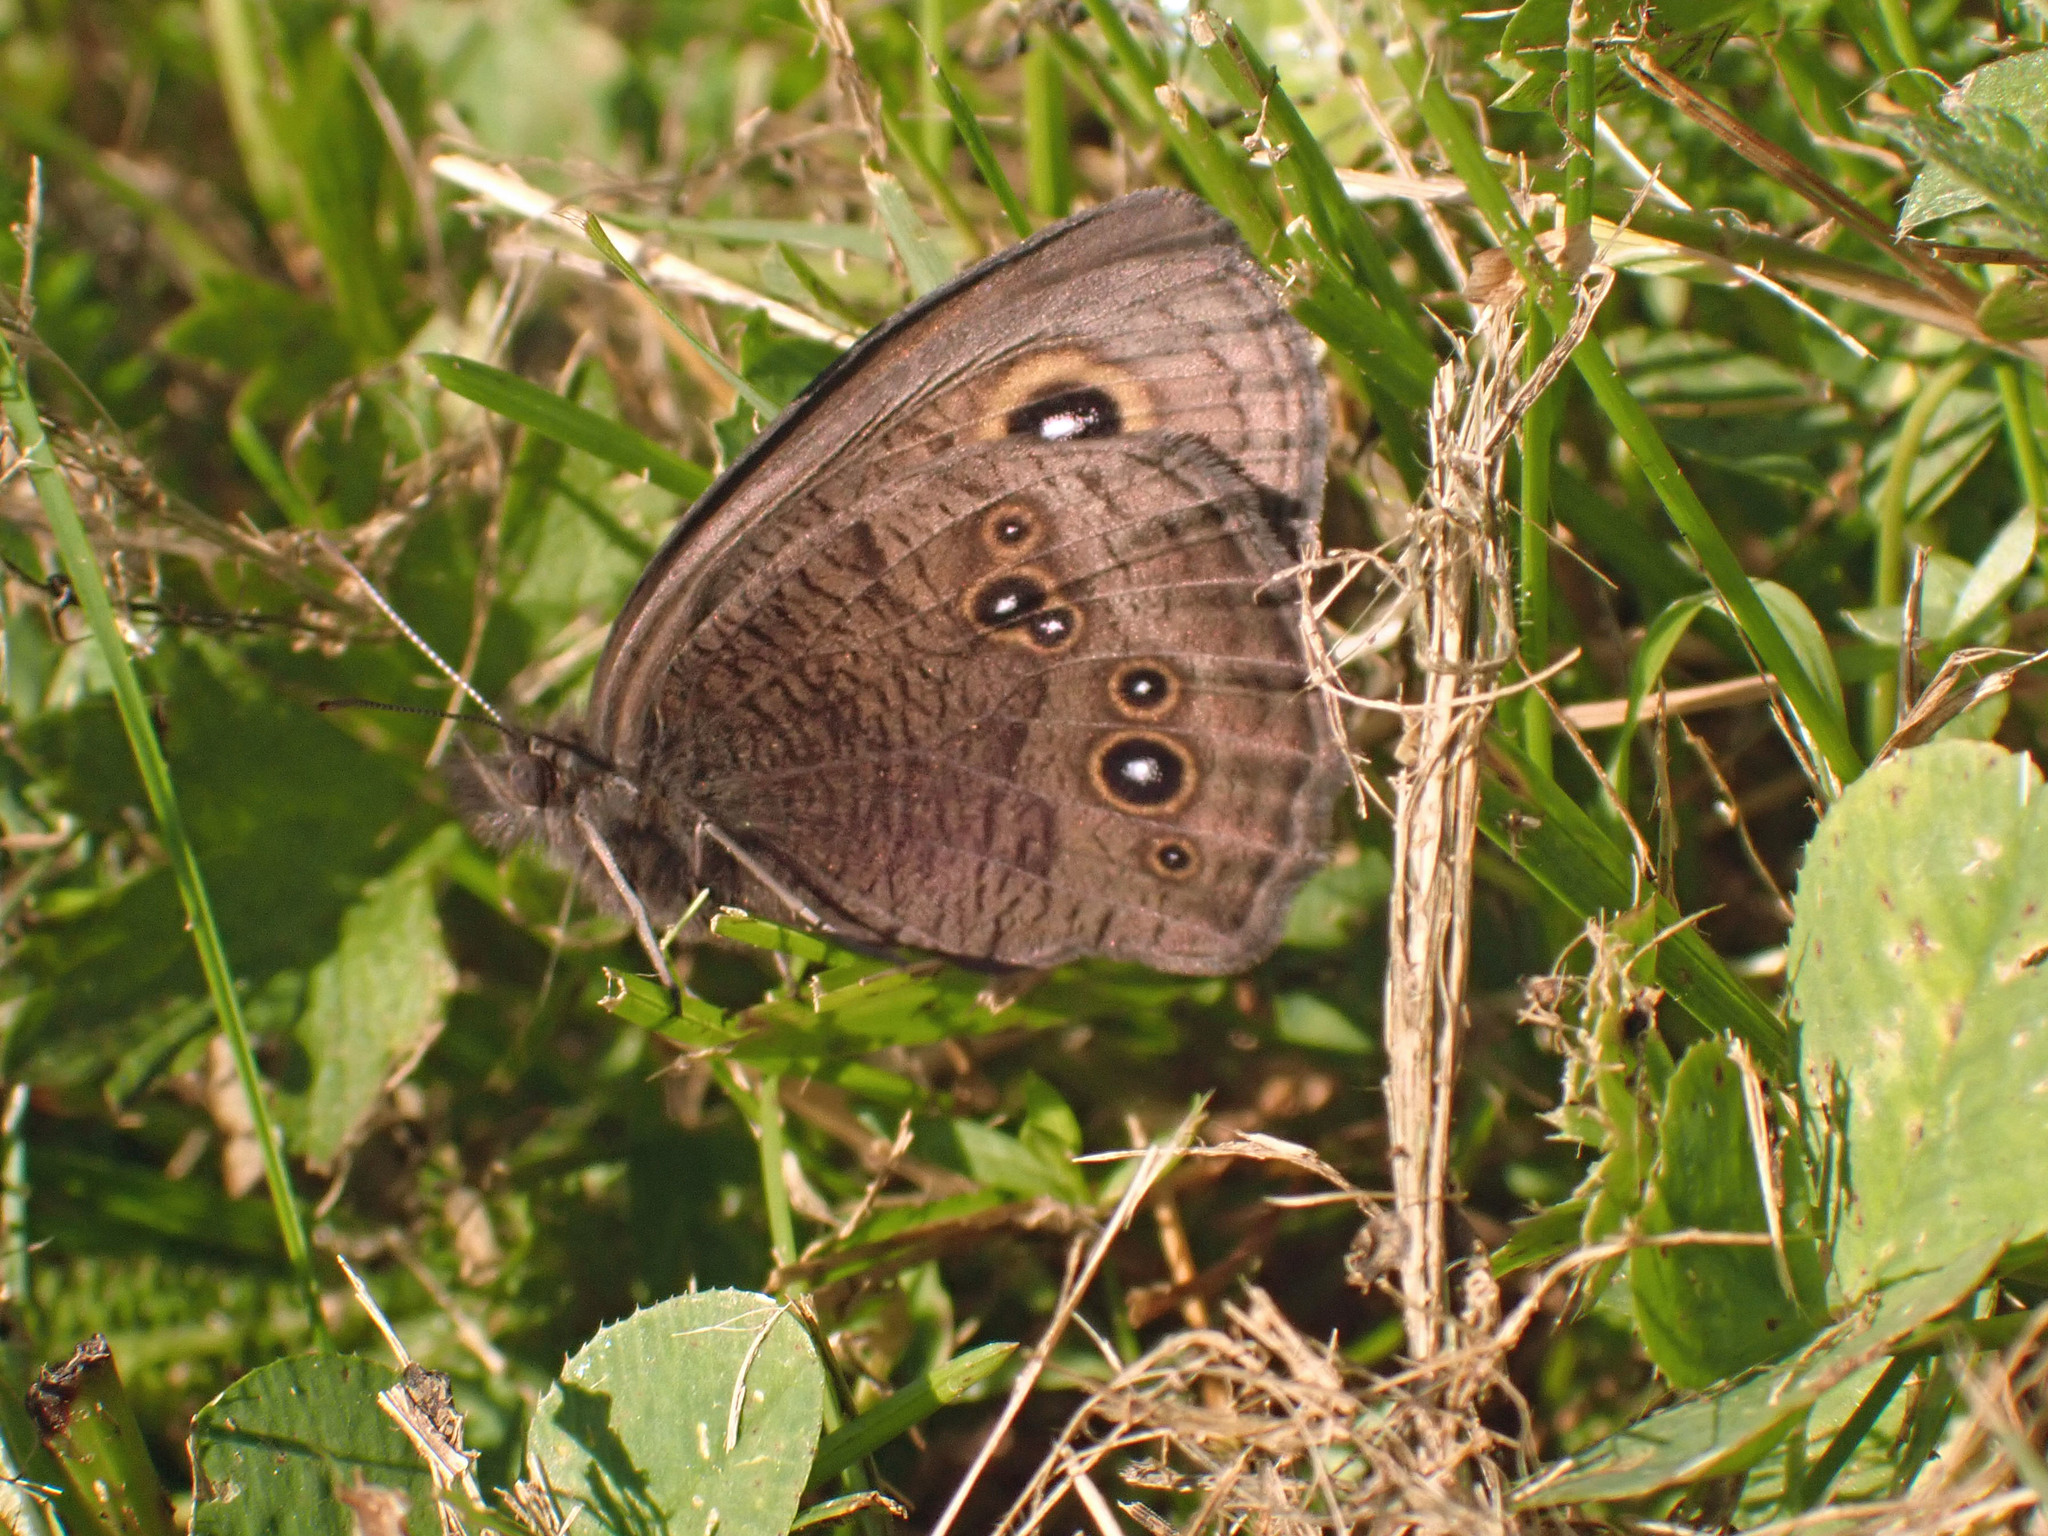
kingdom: Animalia
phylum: Arthropoda
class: Insecta
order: Lepidoptera
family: Nymphalidae
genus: Cercyonis
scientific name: Cercyonis pegala
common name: Common wood-nymph
